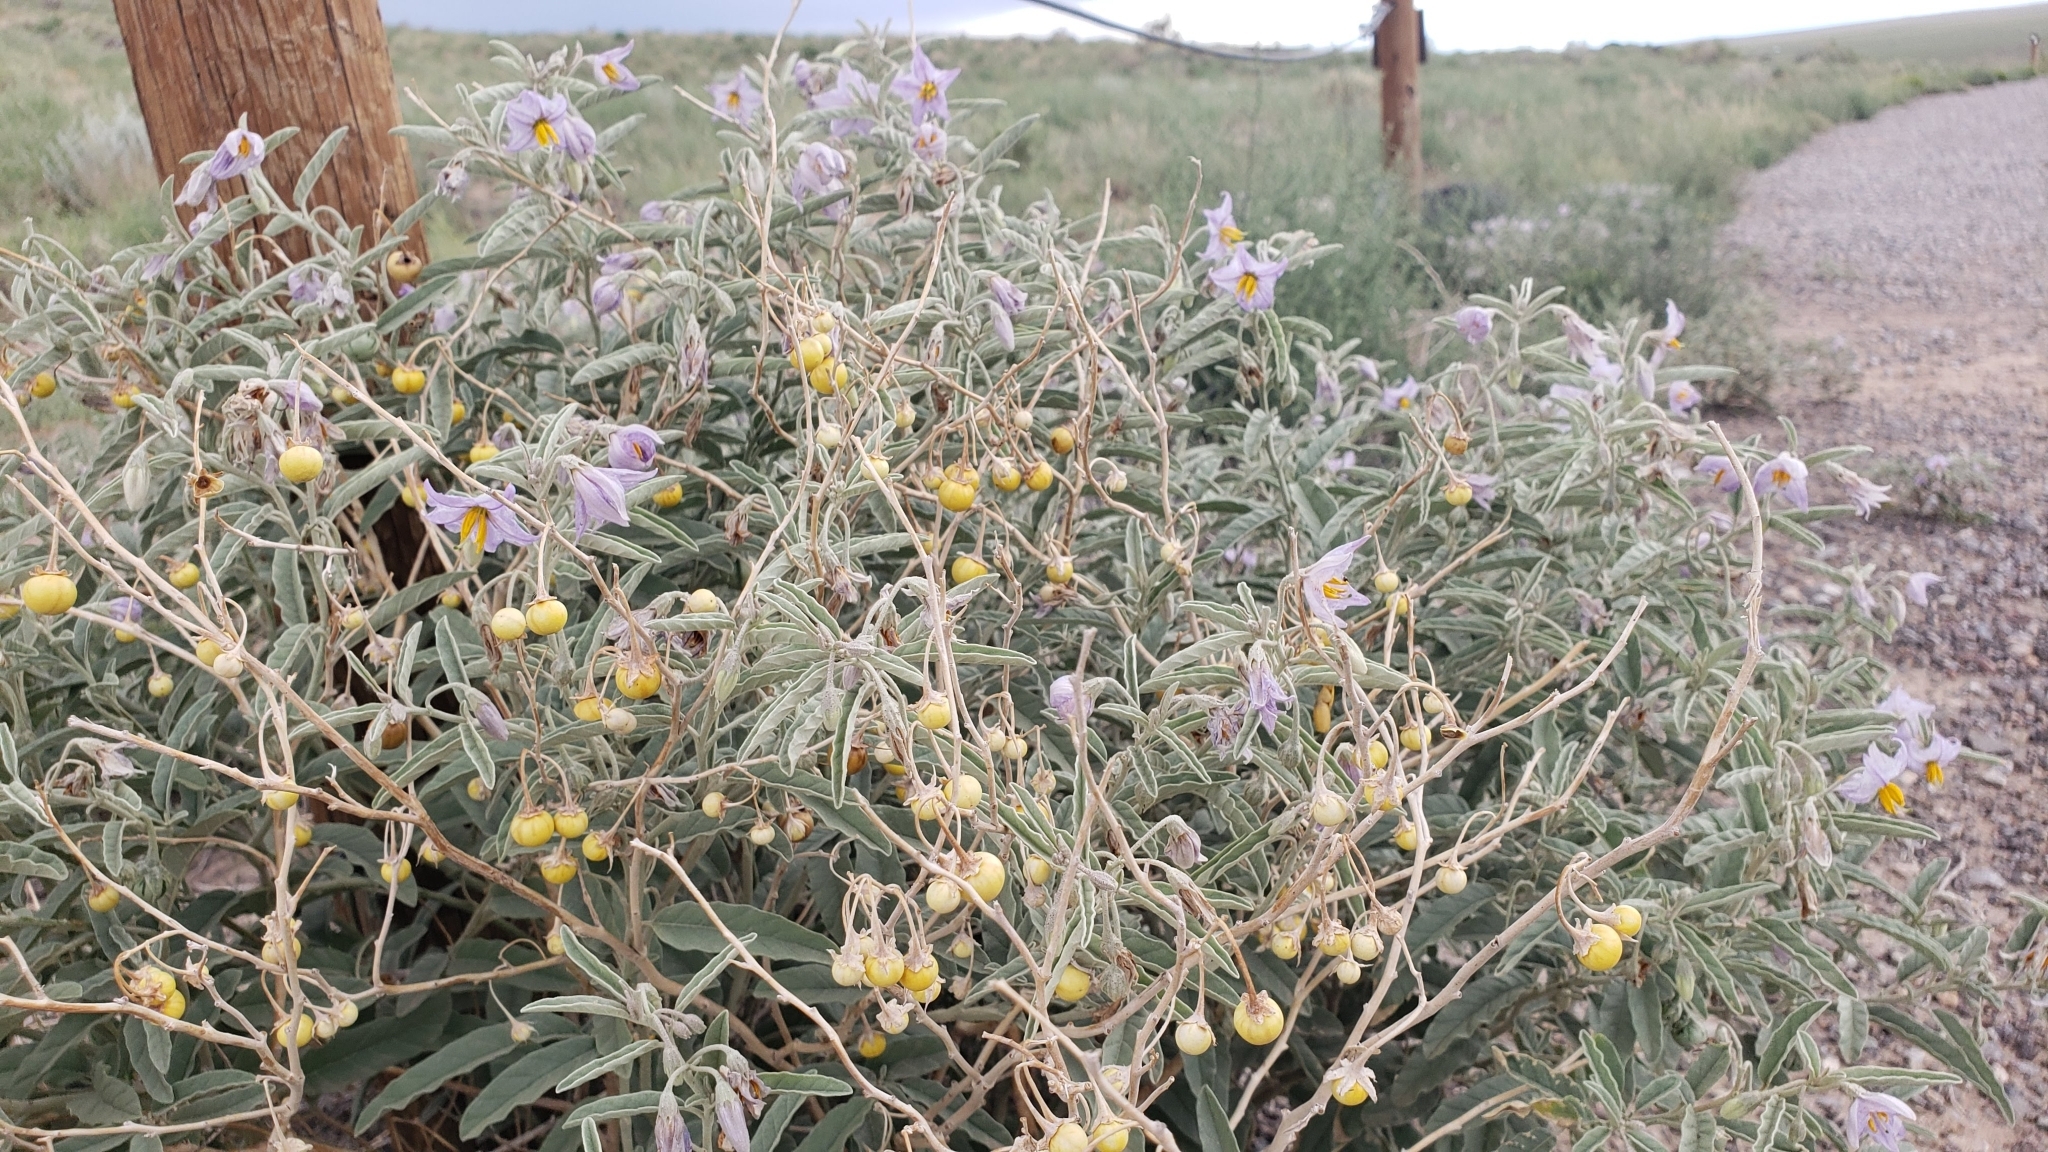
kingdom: Plantae
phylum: Tracheophyta
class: Magnoliopsida
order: Solanales
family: Solanaceae
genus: Solanum
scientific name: Solanum elaeagnifolium
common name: Silverleaf nightshade
